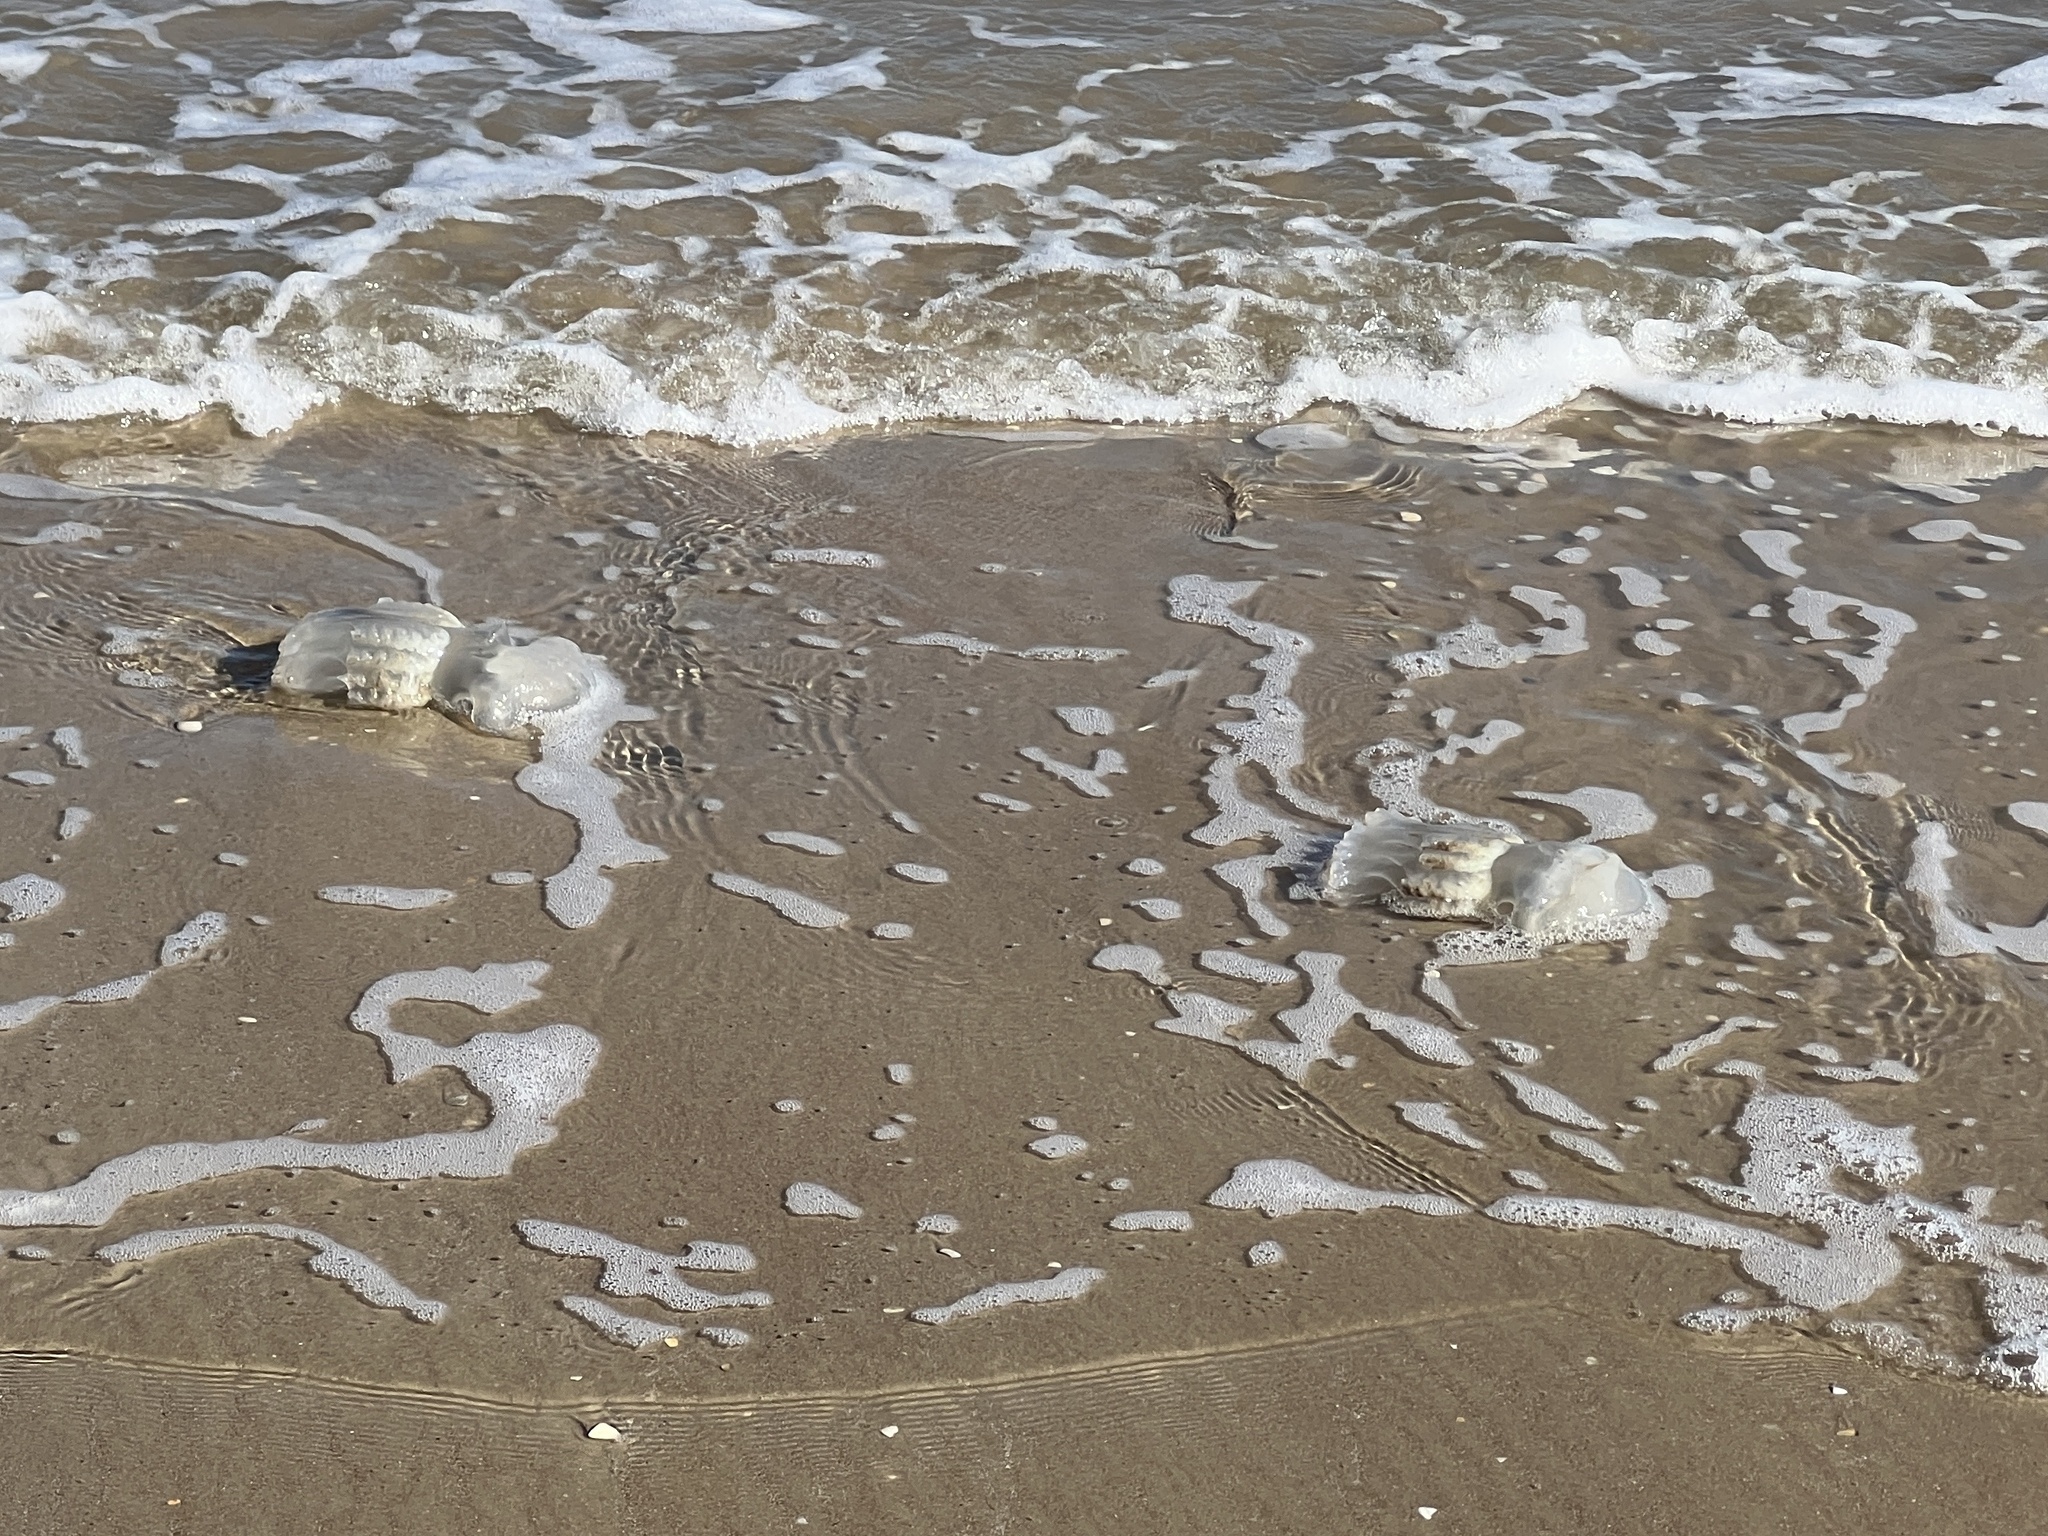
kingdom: Animalia
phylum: Cnidaria
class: Scyphozoa
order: Rhizostomeae
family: Stomolophidae
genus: Stomolophus
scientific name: Stomolophus meleagris
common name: Cabbagehead
